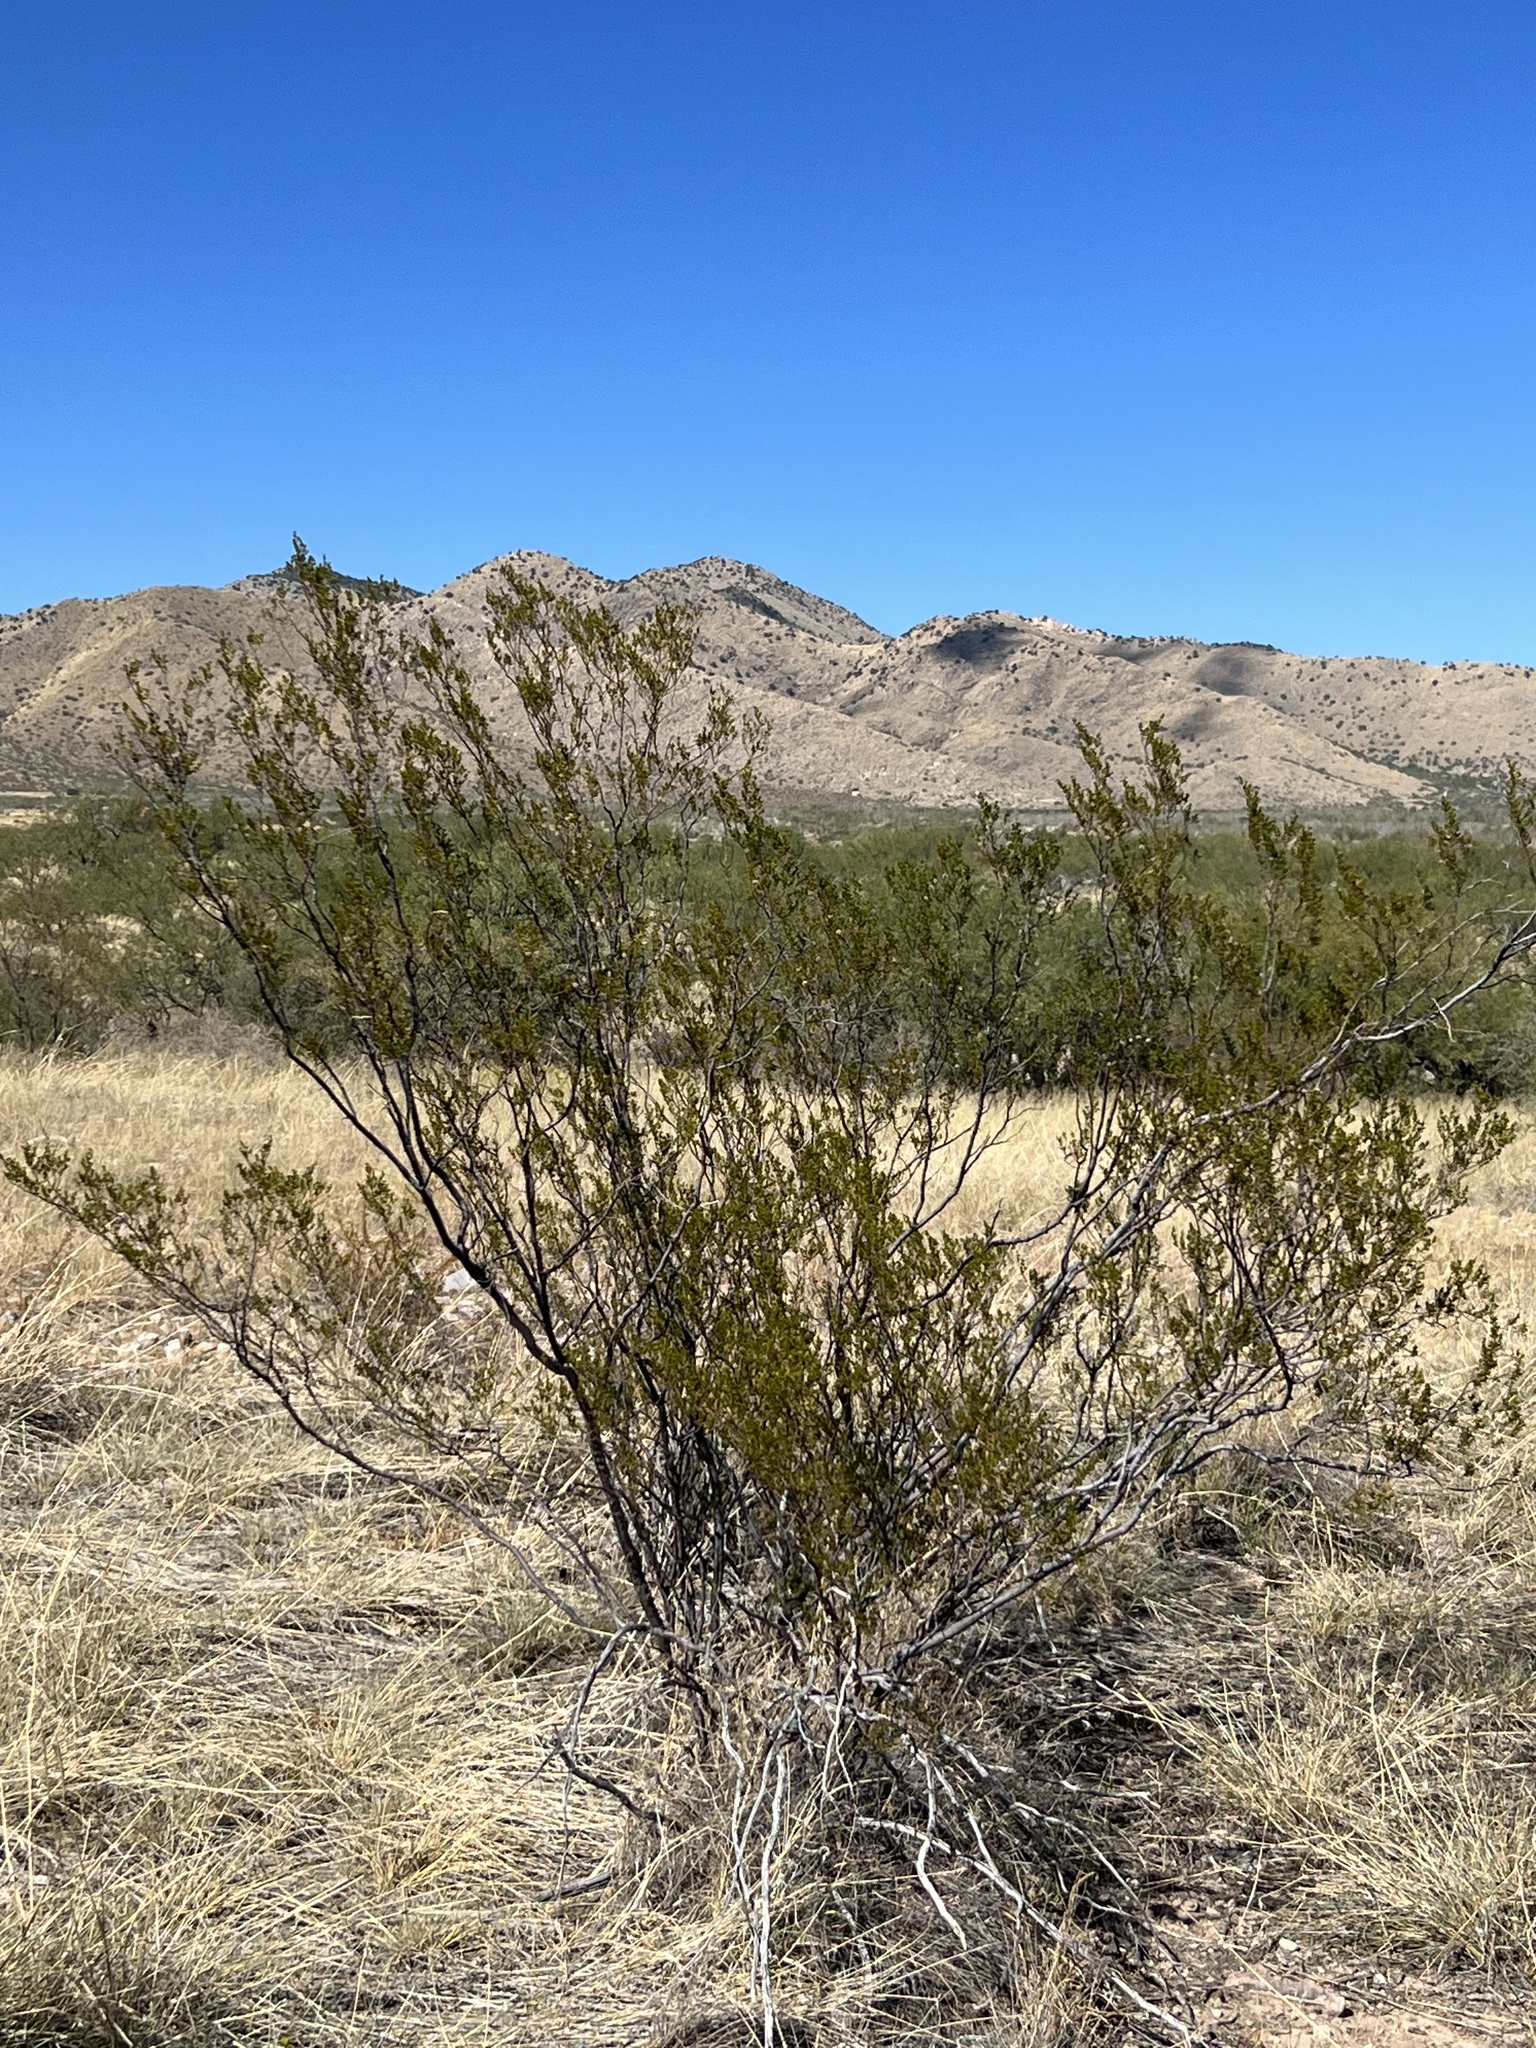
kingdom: Plantae
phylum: Tracheophyta
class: Magnoliopsida
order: Zygophyllales
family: Zygophyllaceae
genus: Larrea
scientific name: Larrea tridentata
